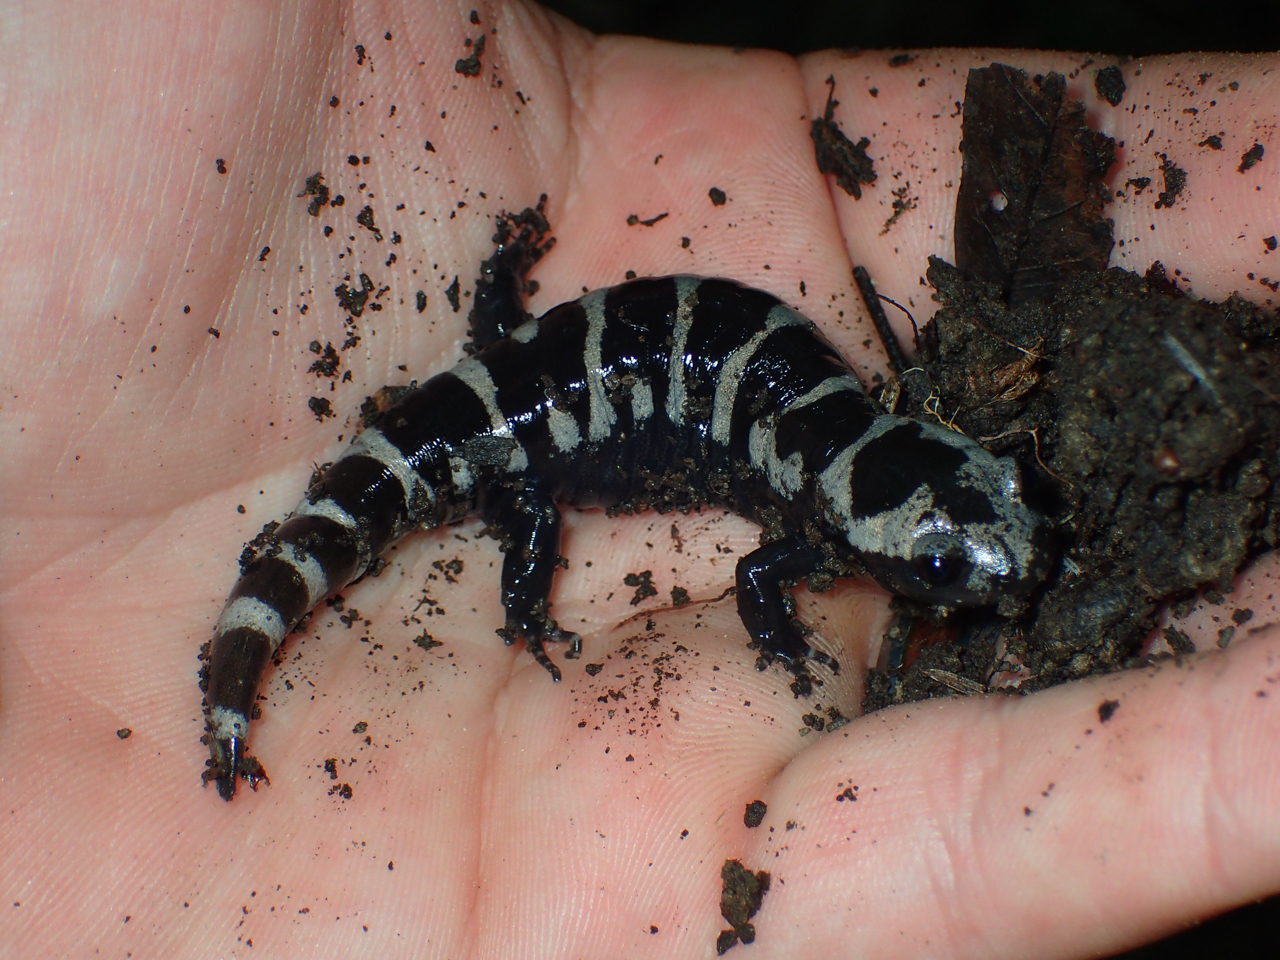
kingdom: Animalia
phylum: Chordata
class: Amphibia
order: Caudata
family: Ambystomatidae
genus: Ambystoma
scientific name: Ambystoma opacum
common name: Marbled salamander
